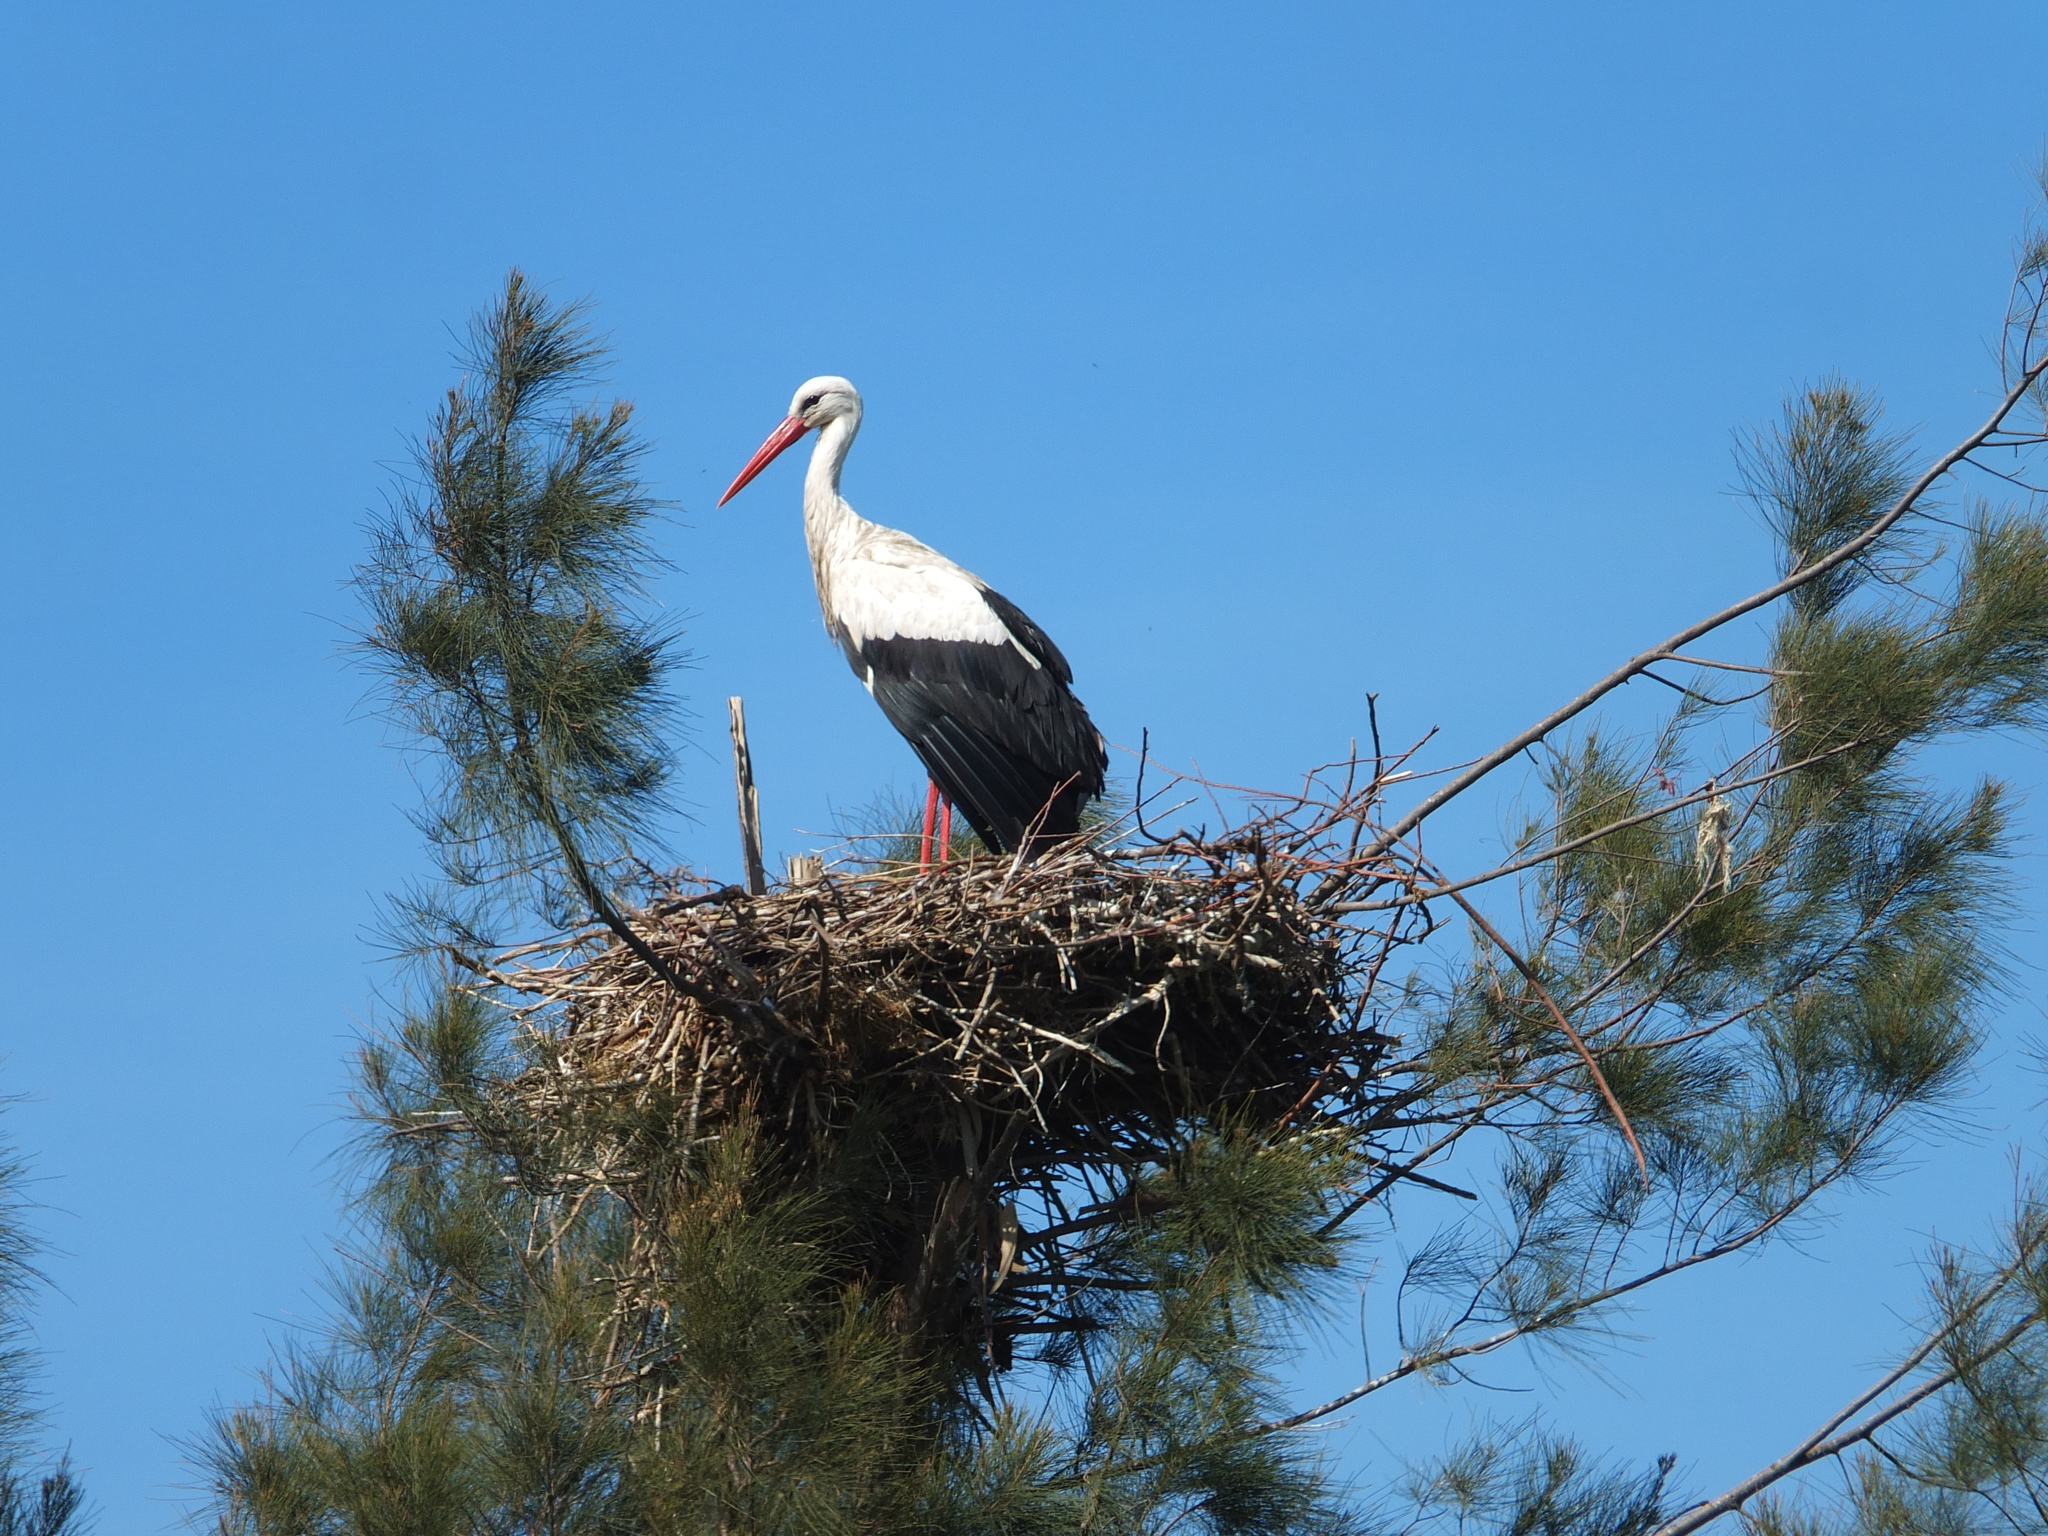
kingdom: Animalia
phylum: Chordata
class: Aves
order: Ciconiiformes
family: Ciconiidae
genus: Ciconia
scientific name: Ciconia ciconia
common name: White stork
